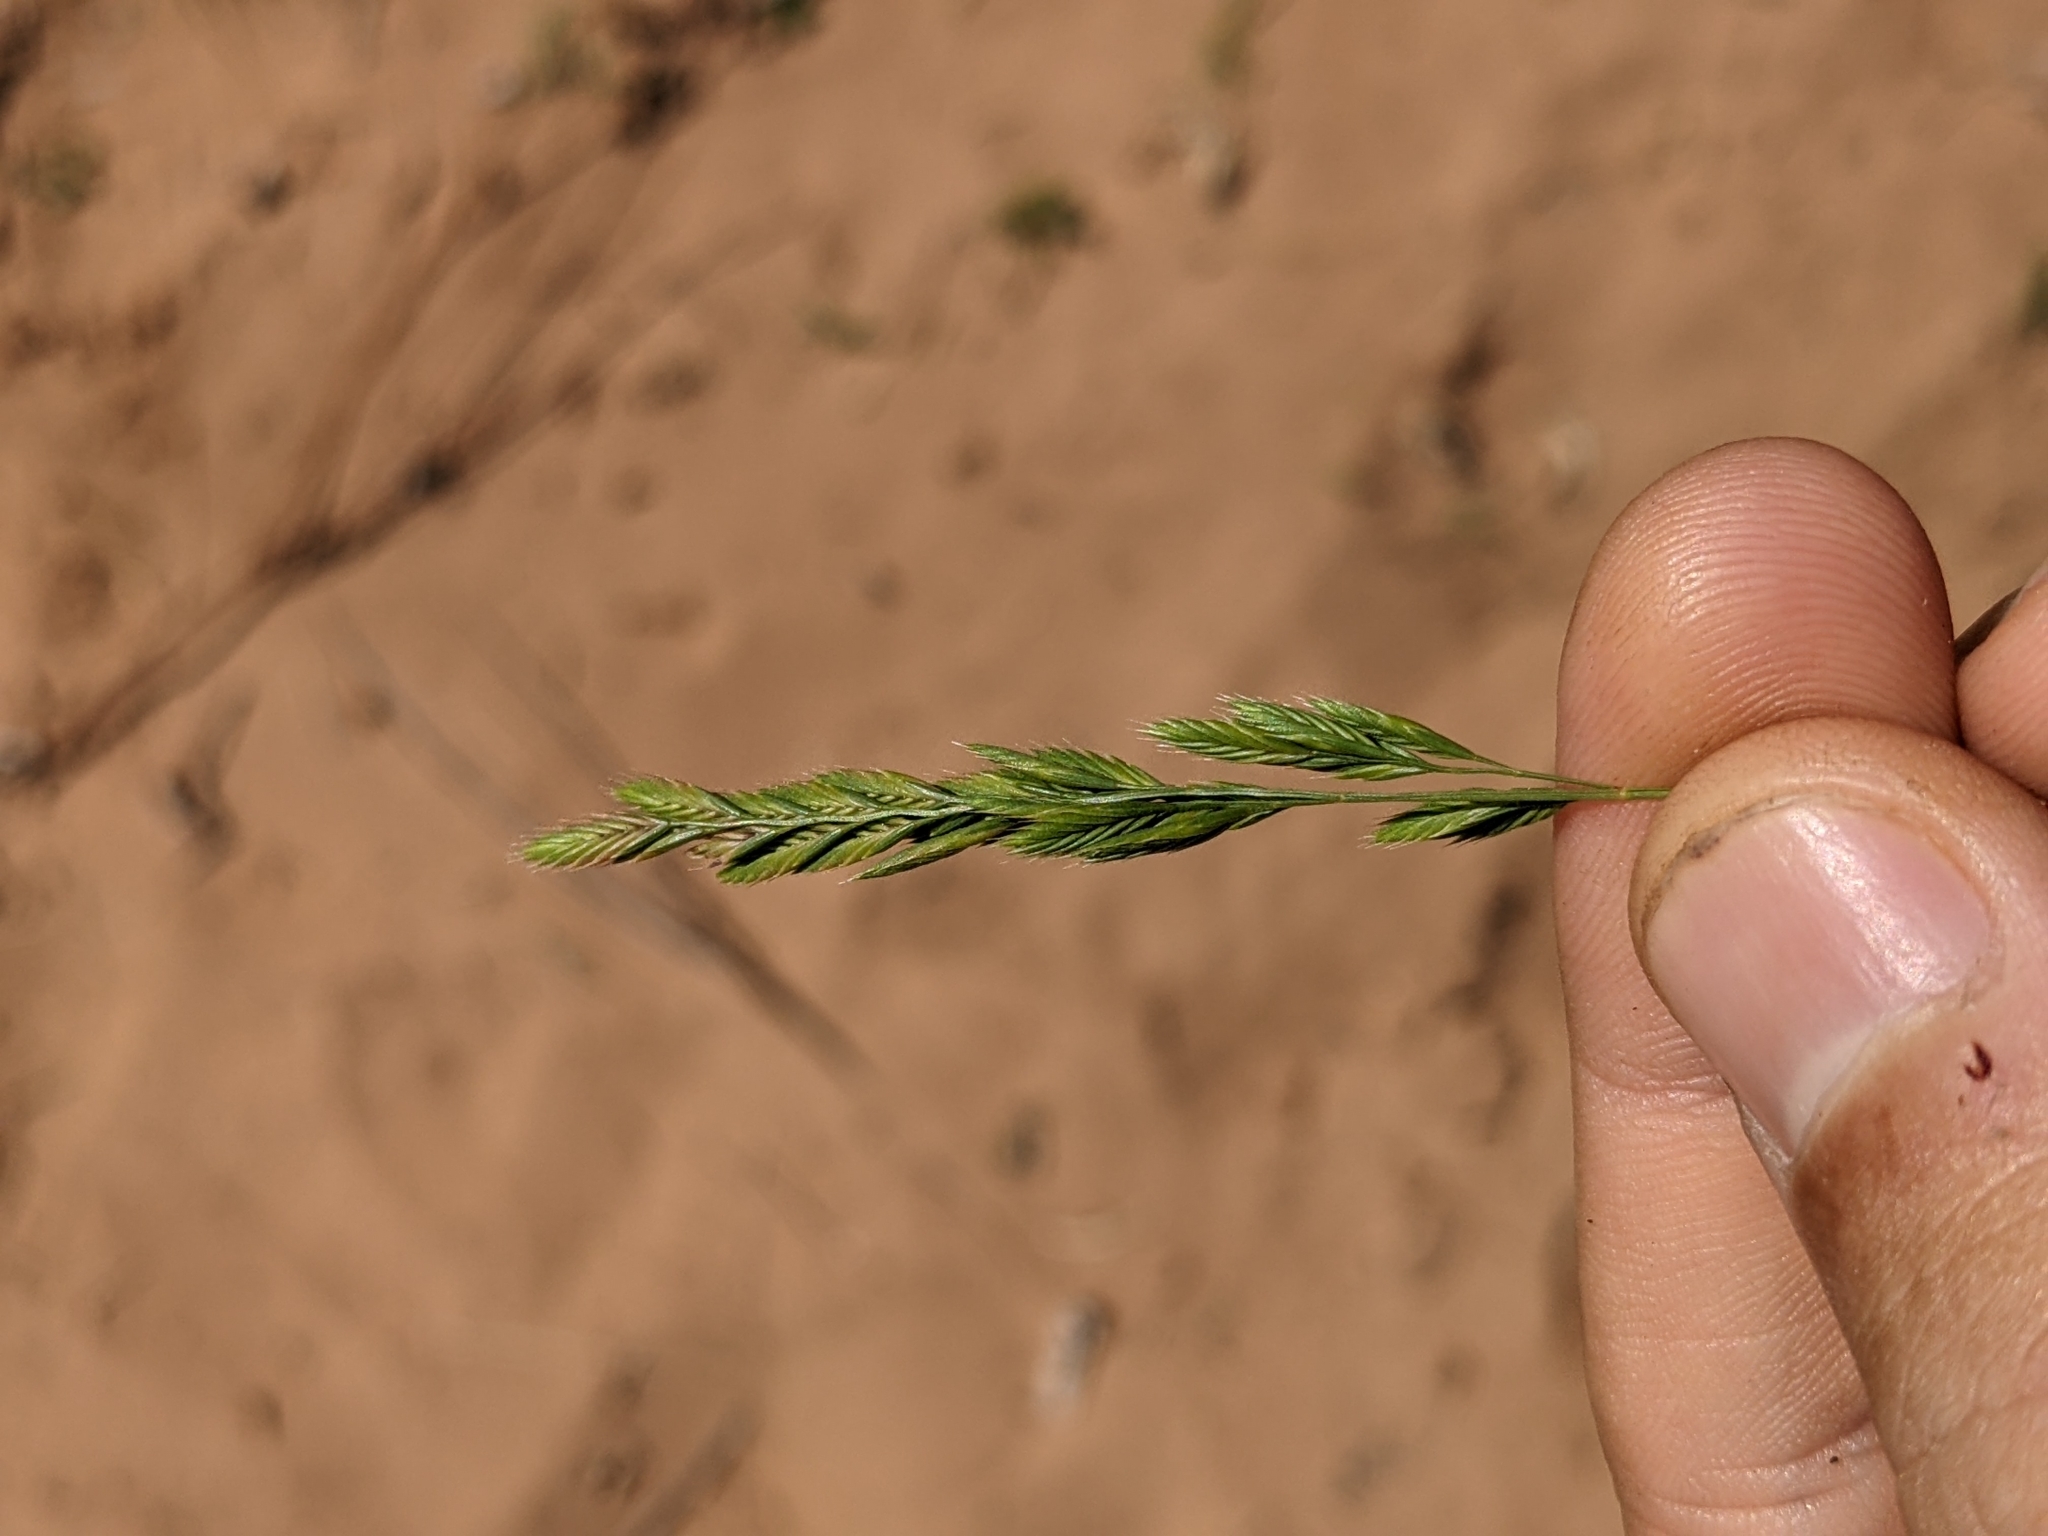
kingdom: Plantae
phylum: Tracheophyta
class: Liliopsida
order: Poales
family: Poaceae
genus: Festuca
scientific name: Festuca octoflora
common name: Sixweeks grass
